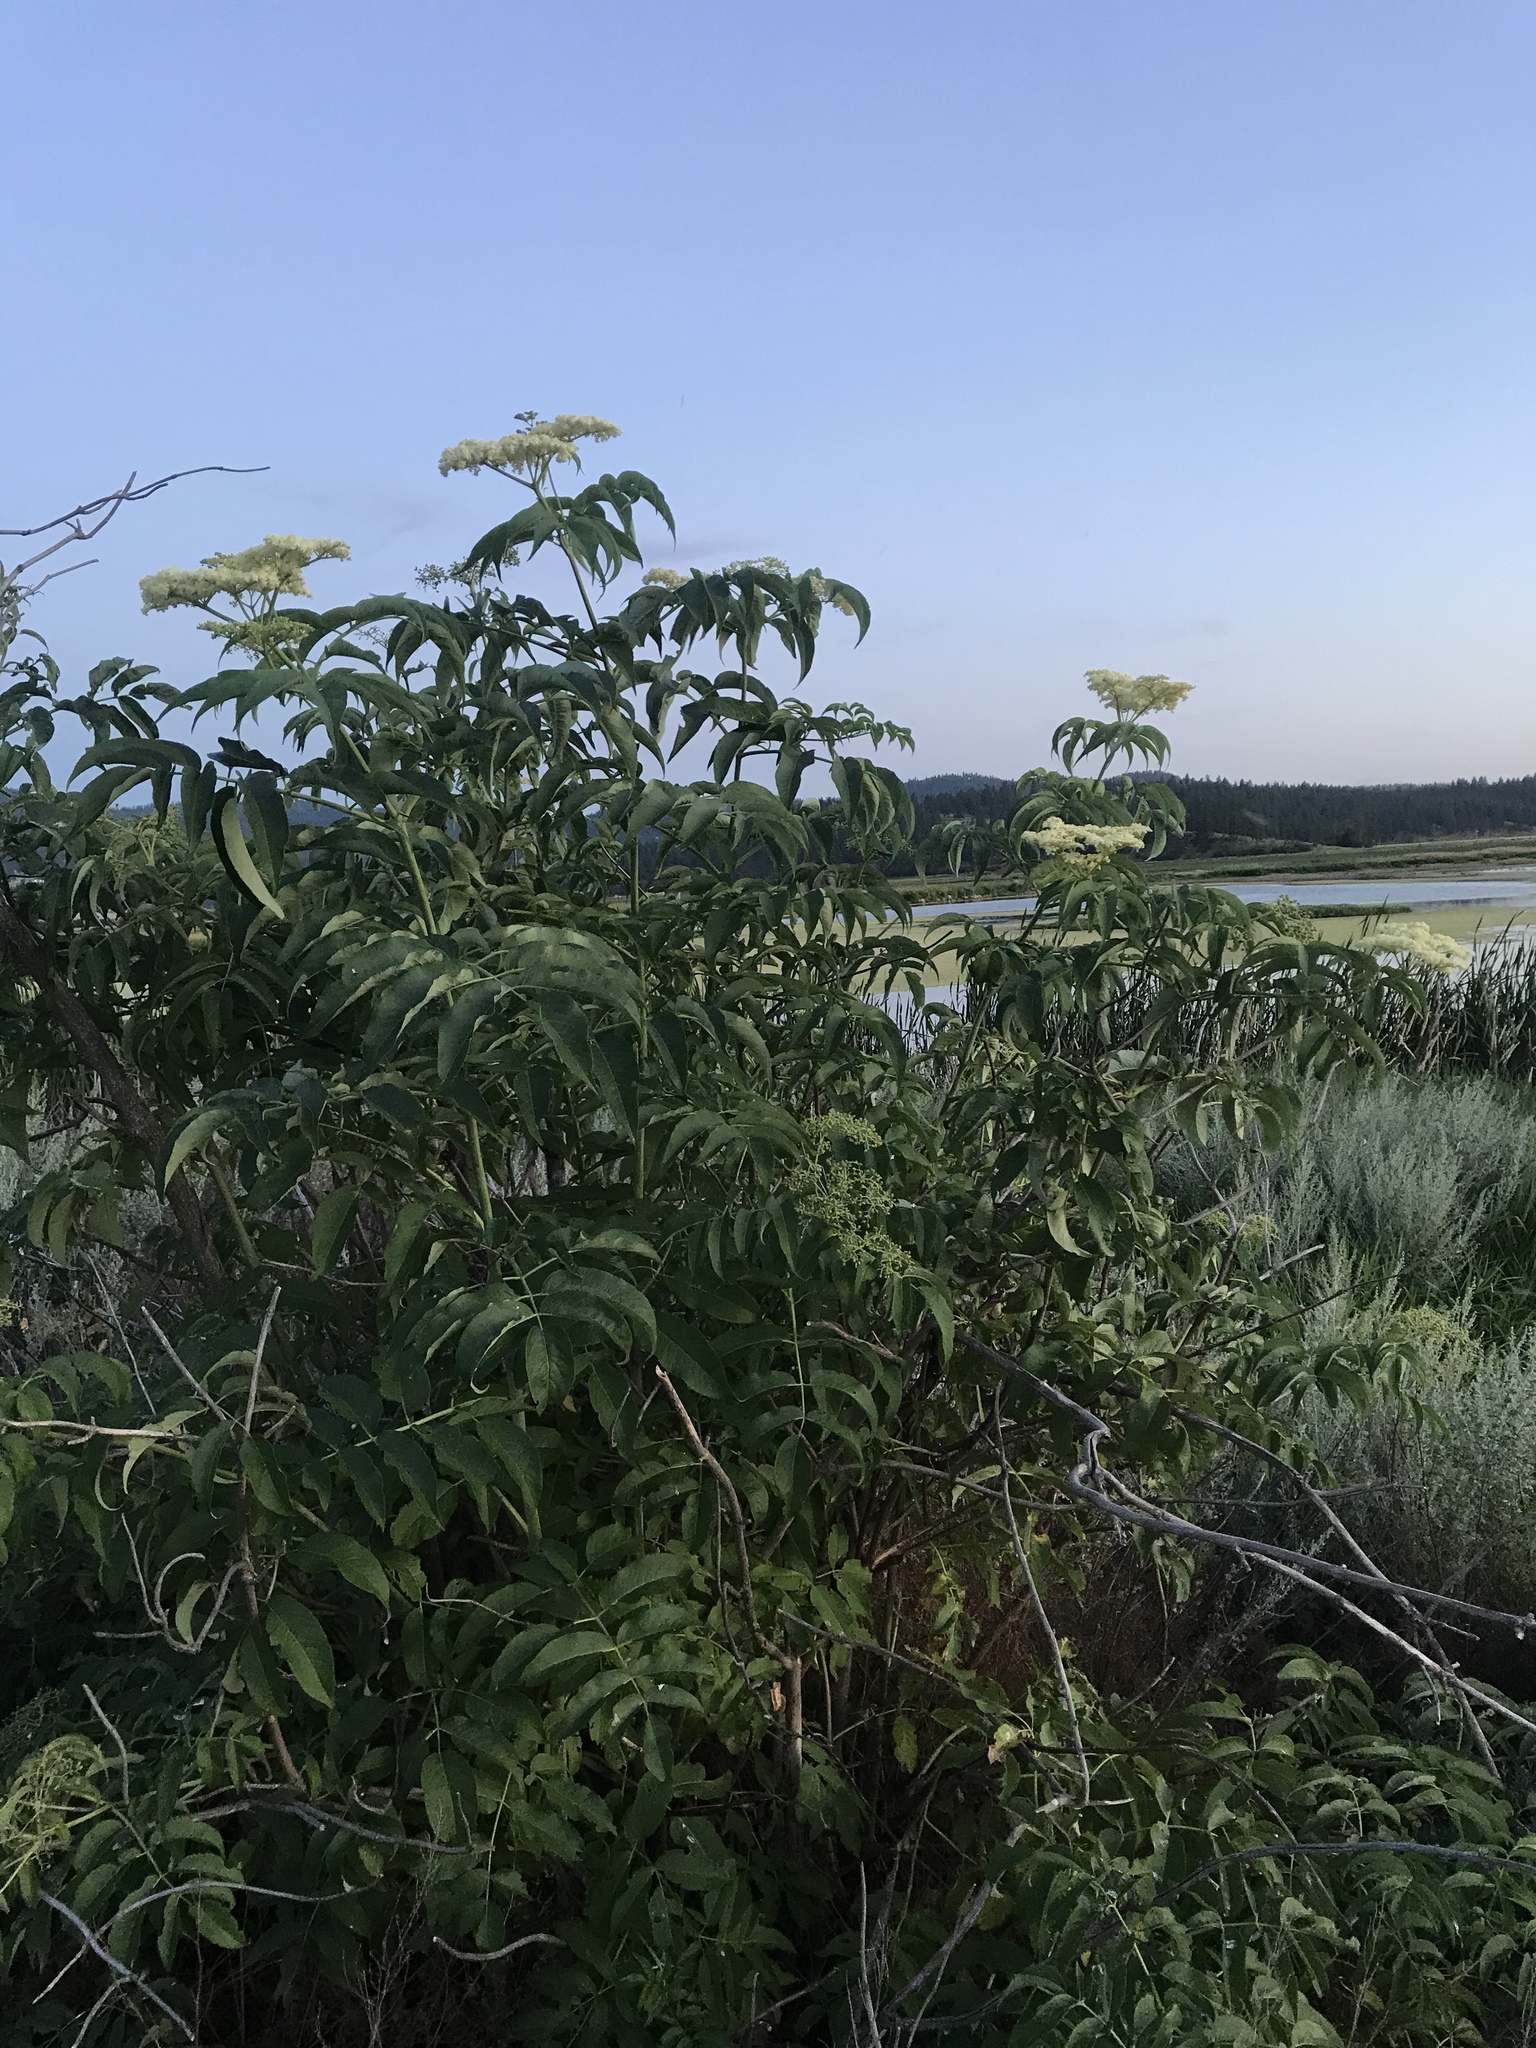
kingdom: Plantae
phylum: Tracheophyta
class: Magnoliopsida
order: Dipsacales
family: Viburnaceae
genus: Sambucus
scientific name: Sambucus cerulea
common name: Blue elder
